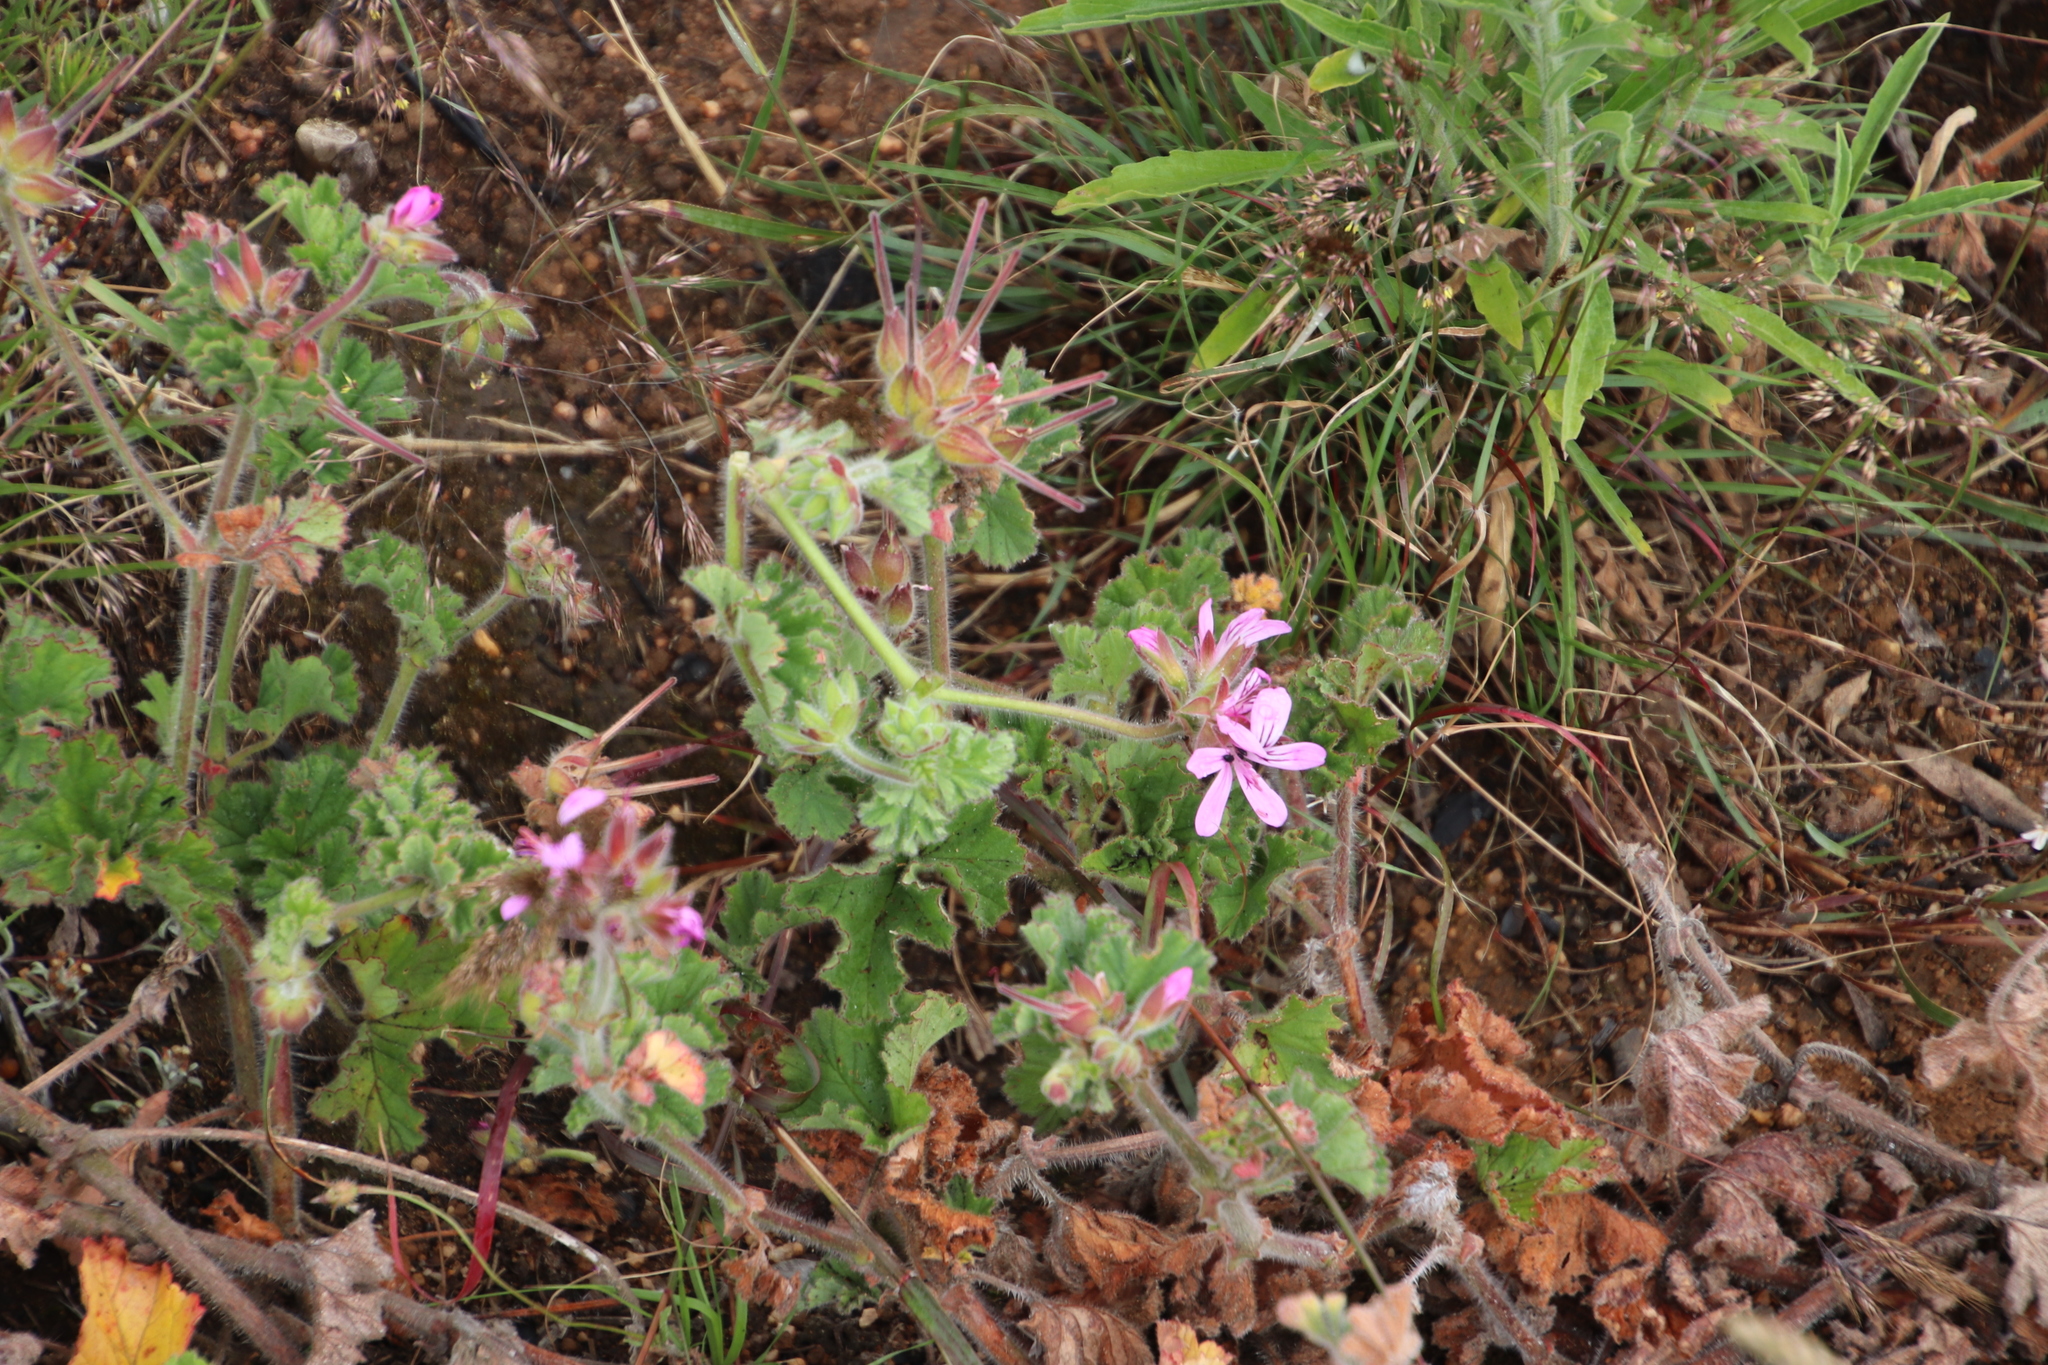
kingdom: Plantae
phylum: Tracheophyta
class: Magnoliopsida
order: Geraniales
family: Geraniaceae
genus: Pelargonium
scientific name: Pelargonium capitatum
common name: Rose scented geranium
